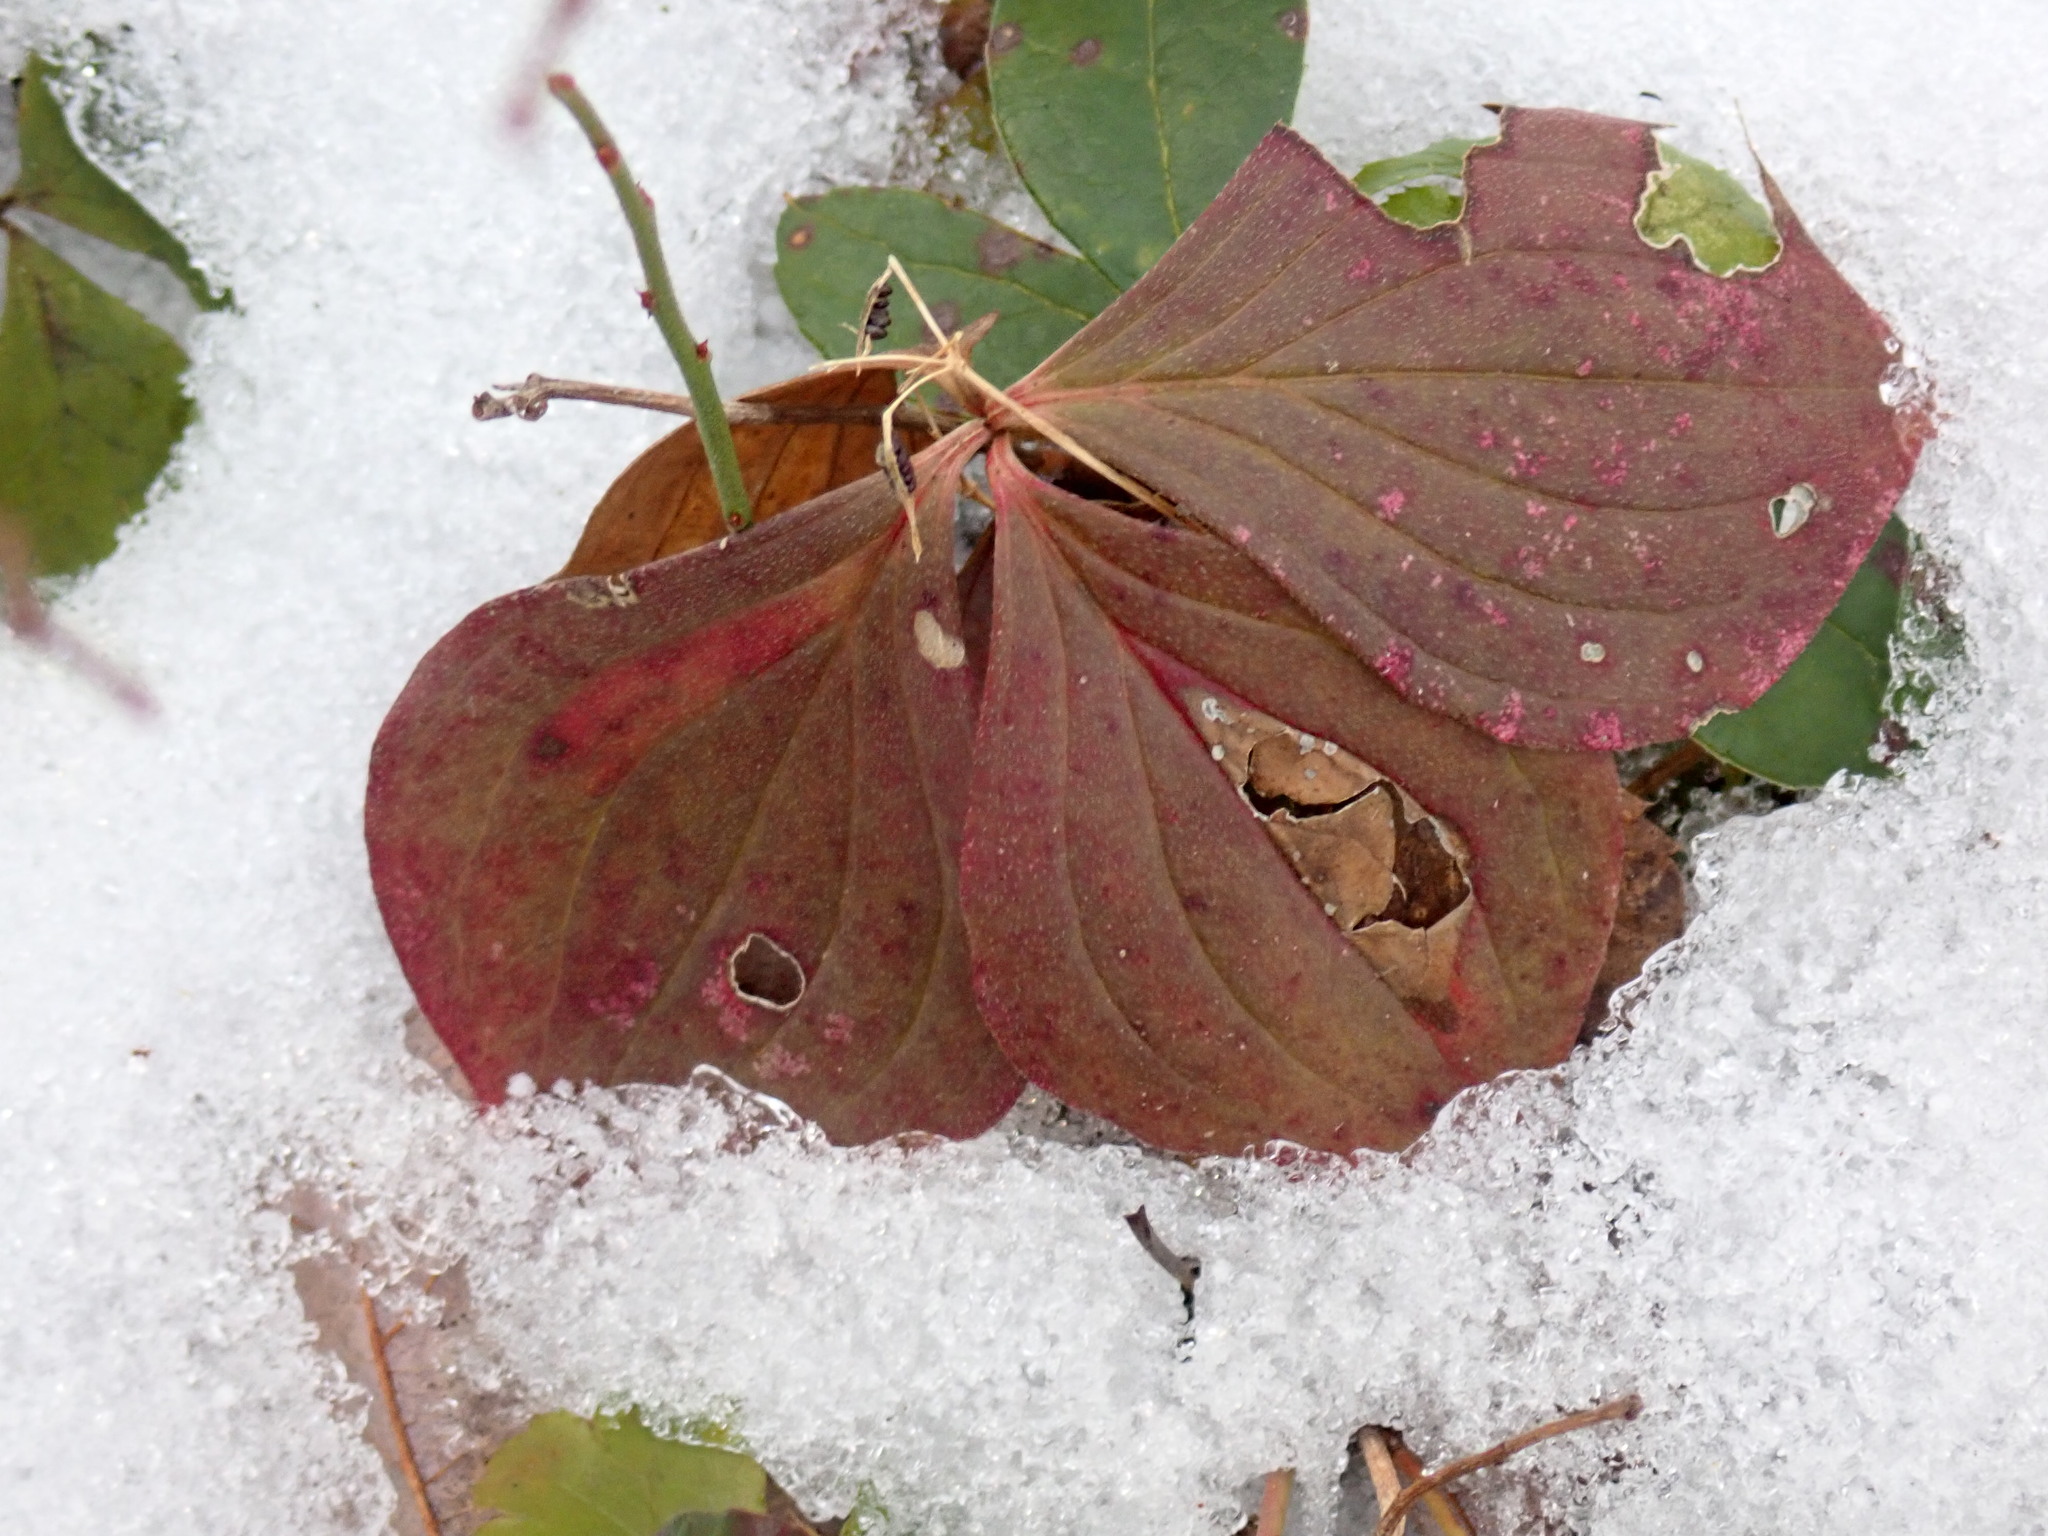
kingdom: Plantae
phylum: Tracheophyta
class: Magnoliopsida
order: Cornales
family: Cornaceae
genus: Cornus
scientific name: Cornus canadensis
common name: Creeping dogwood
